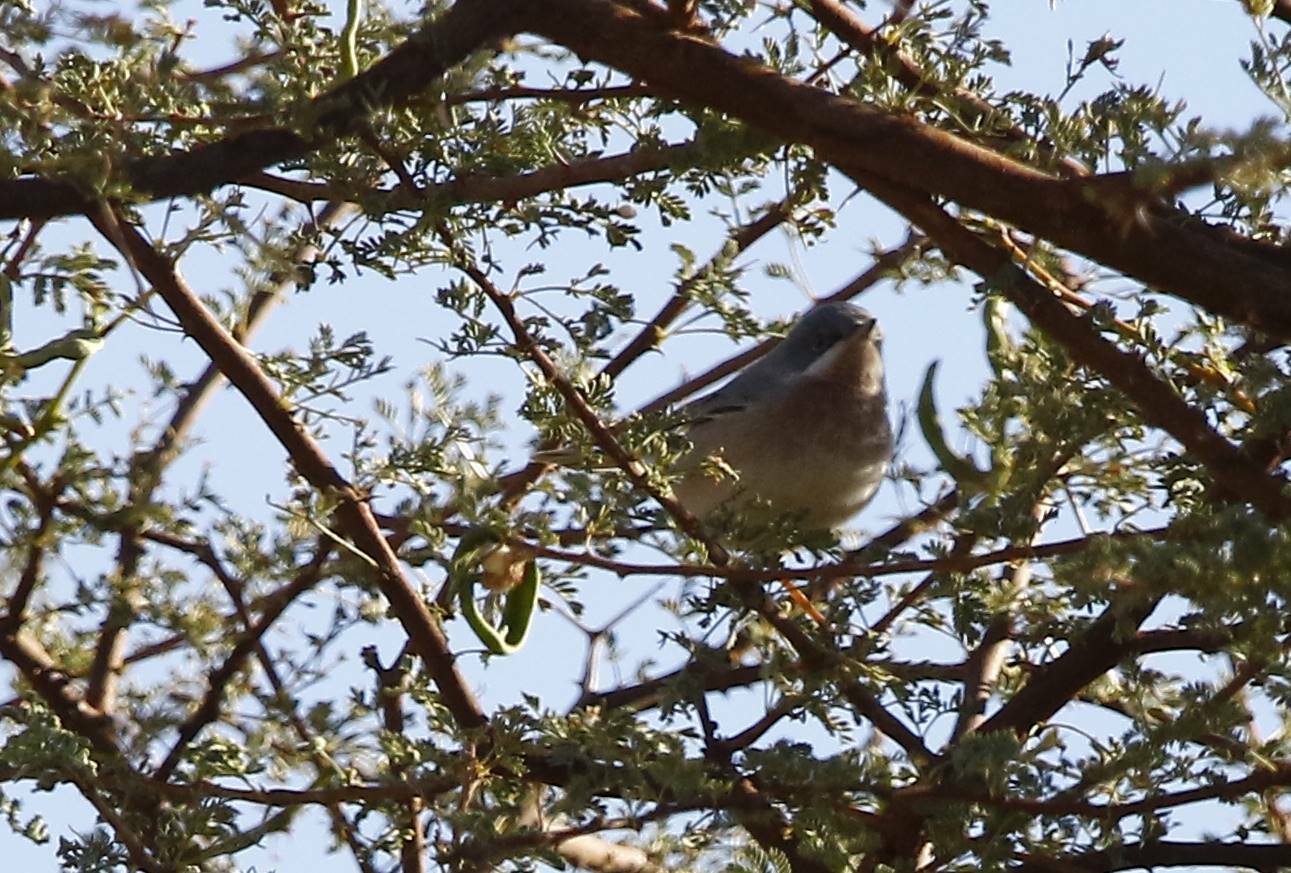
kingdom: Animalia
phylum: Chordata
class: Aves
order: Passeriformes
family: Sylviidae
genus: Curruca
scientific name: Curruca subalpina
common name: Moltoni's warbler
